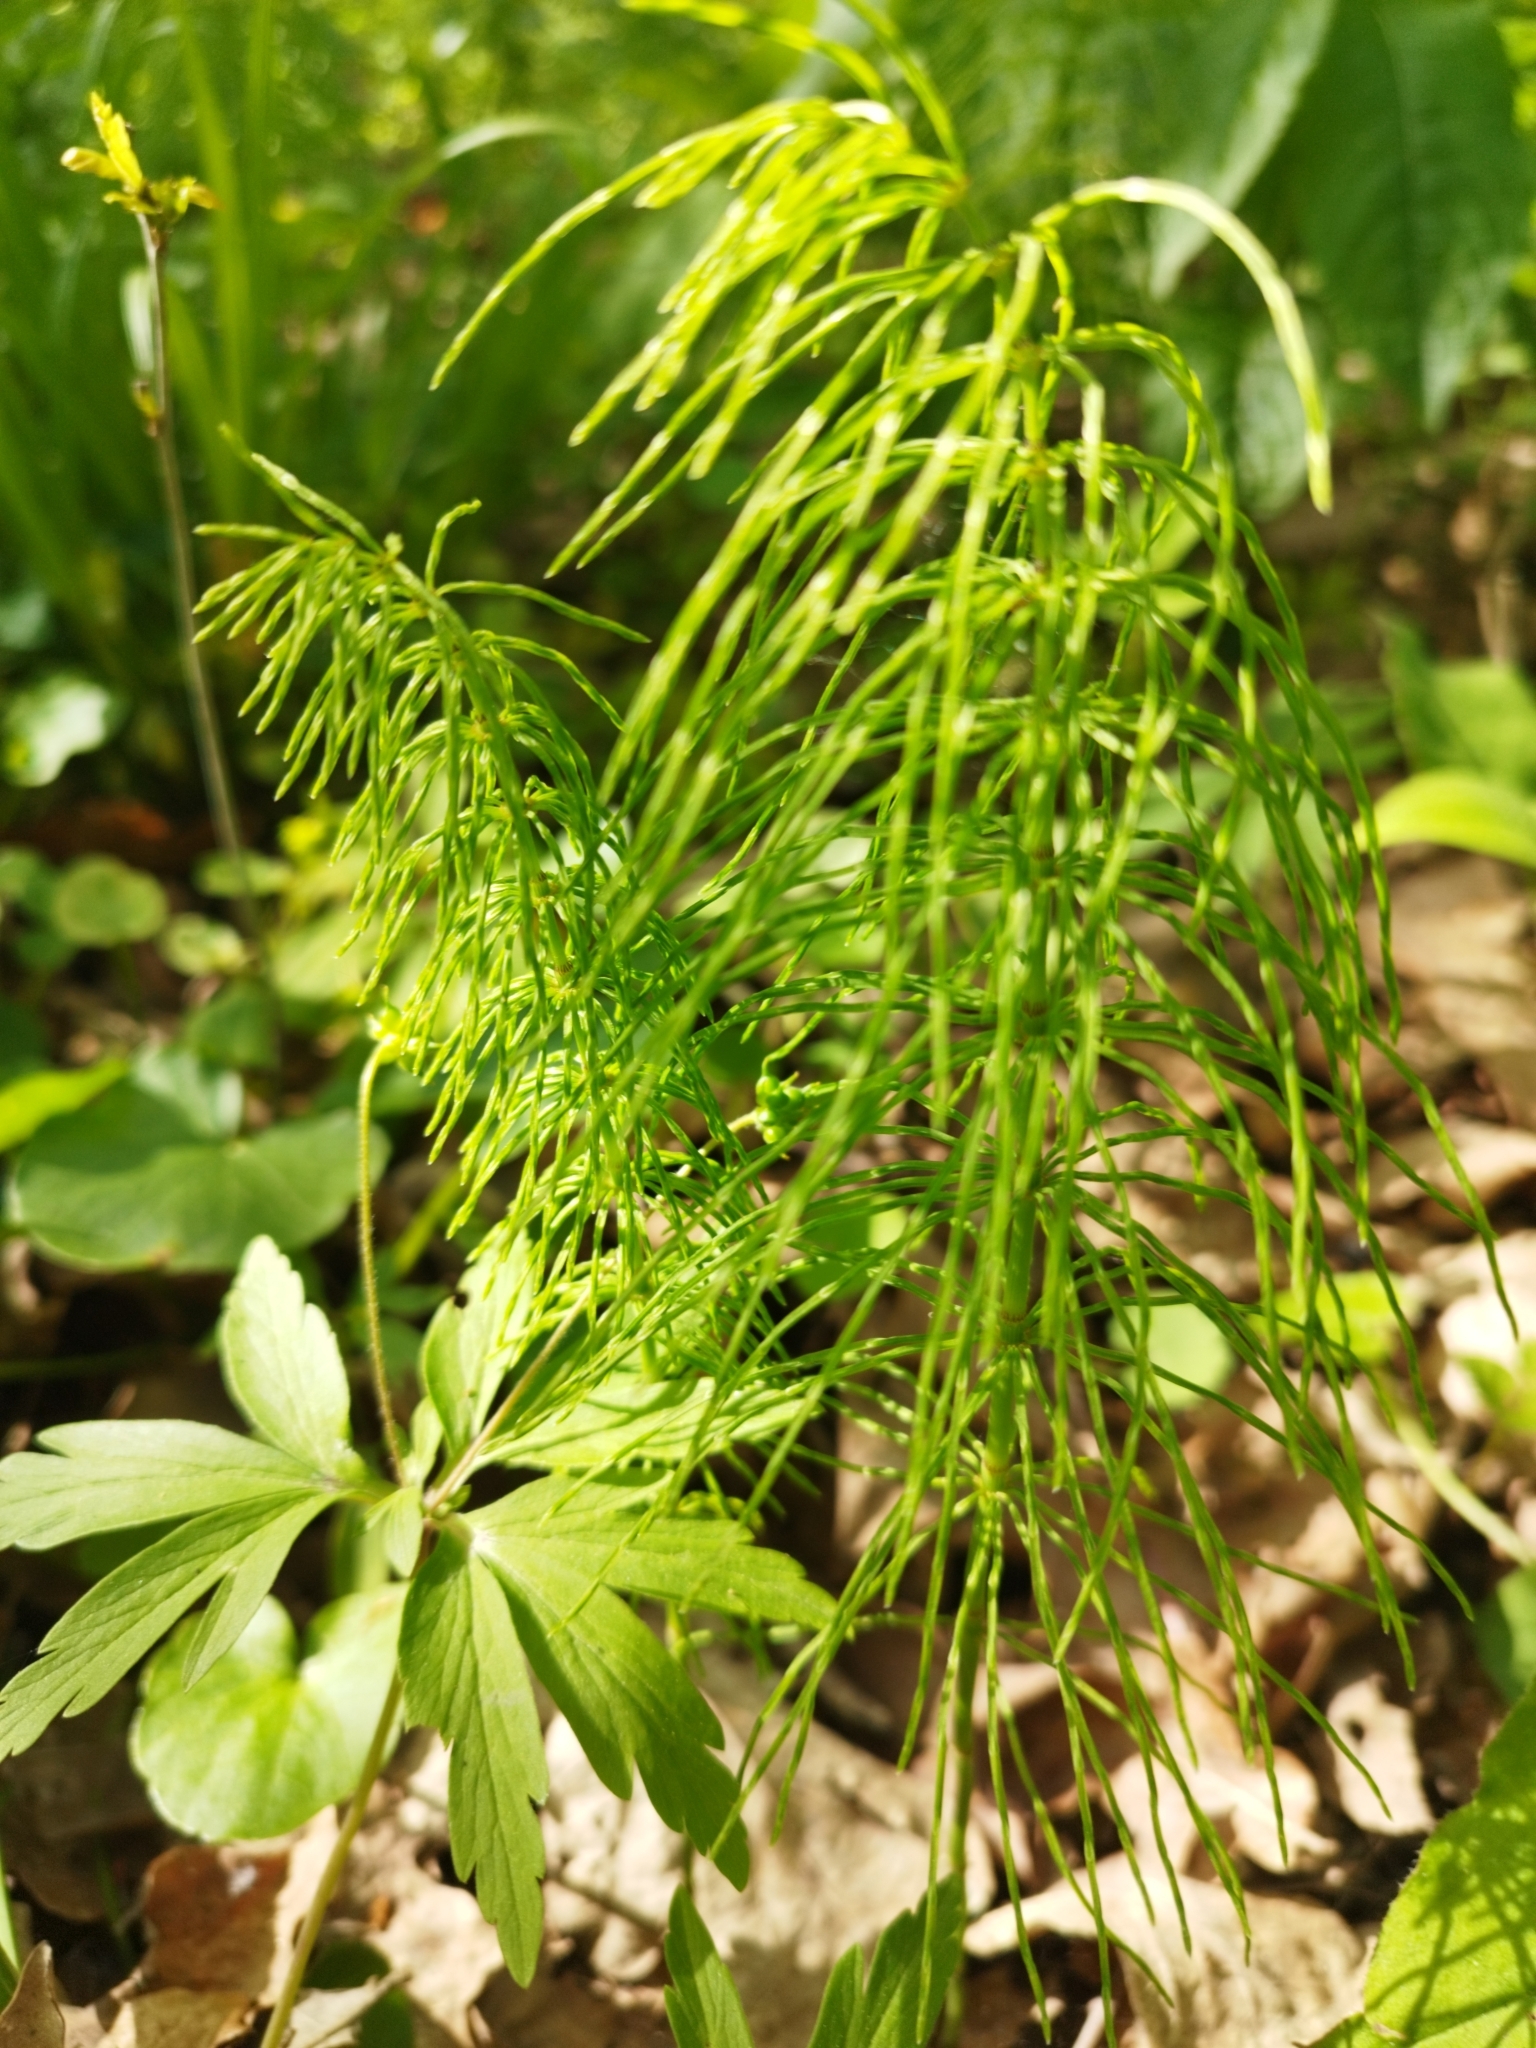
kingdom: Plantae
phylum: Tracheophyta
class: Polypodiopsida
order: Equisetales
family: Equisetaceae
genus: Equisetum
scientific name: Equisetum pratense
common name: Meadow horsetail
